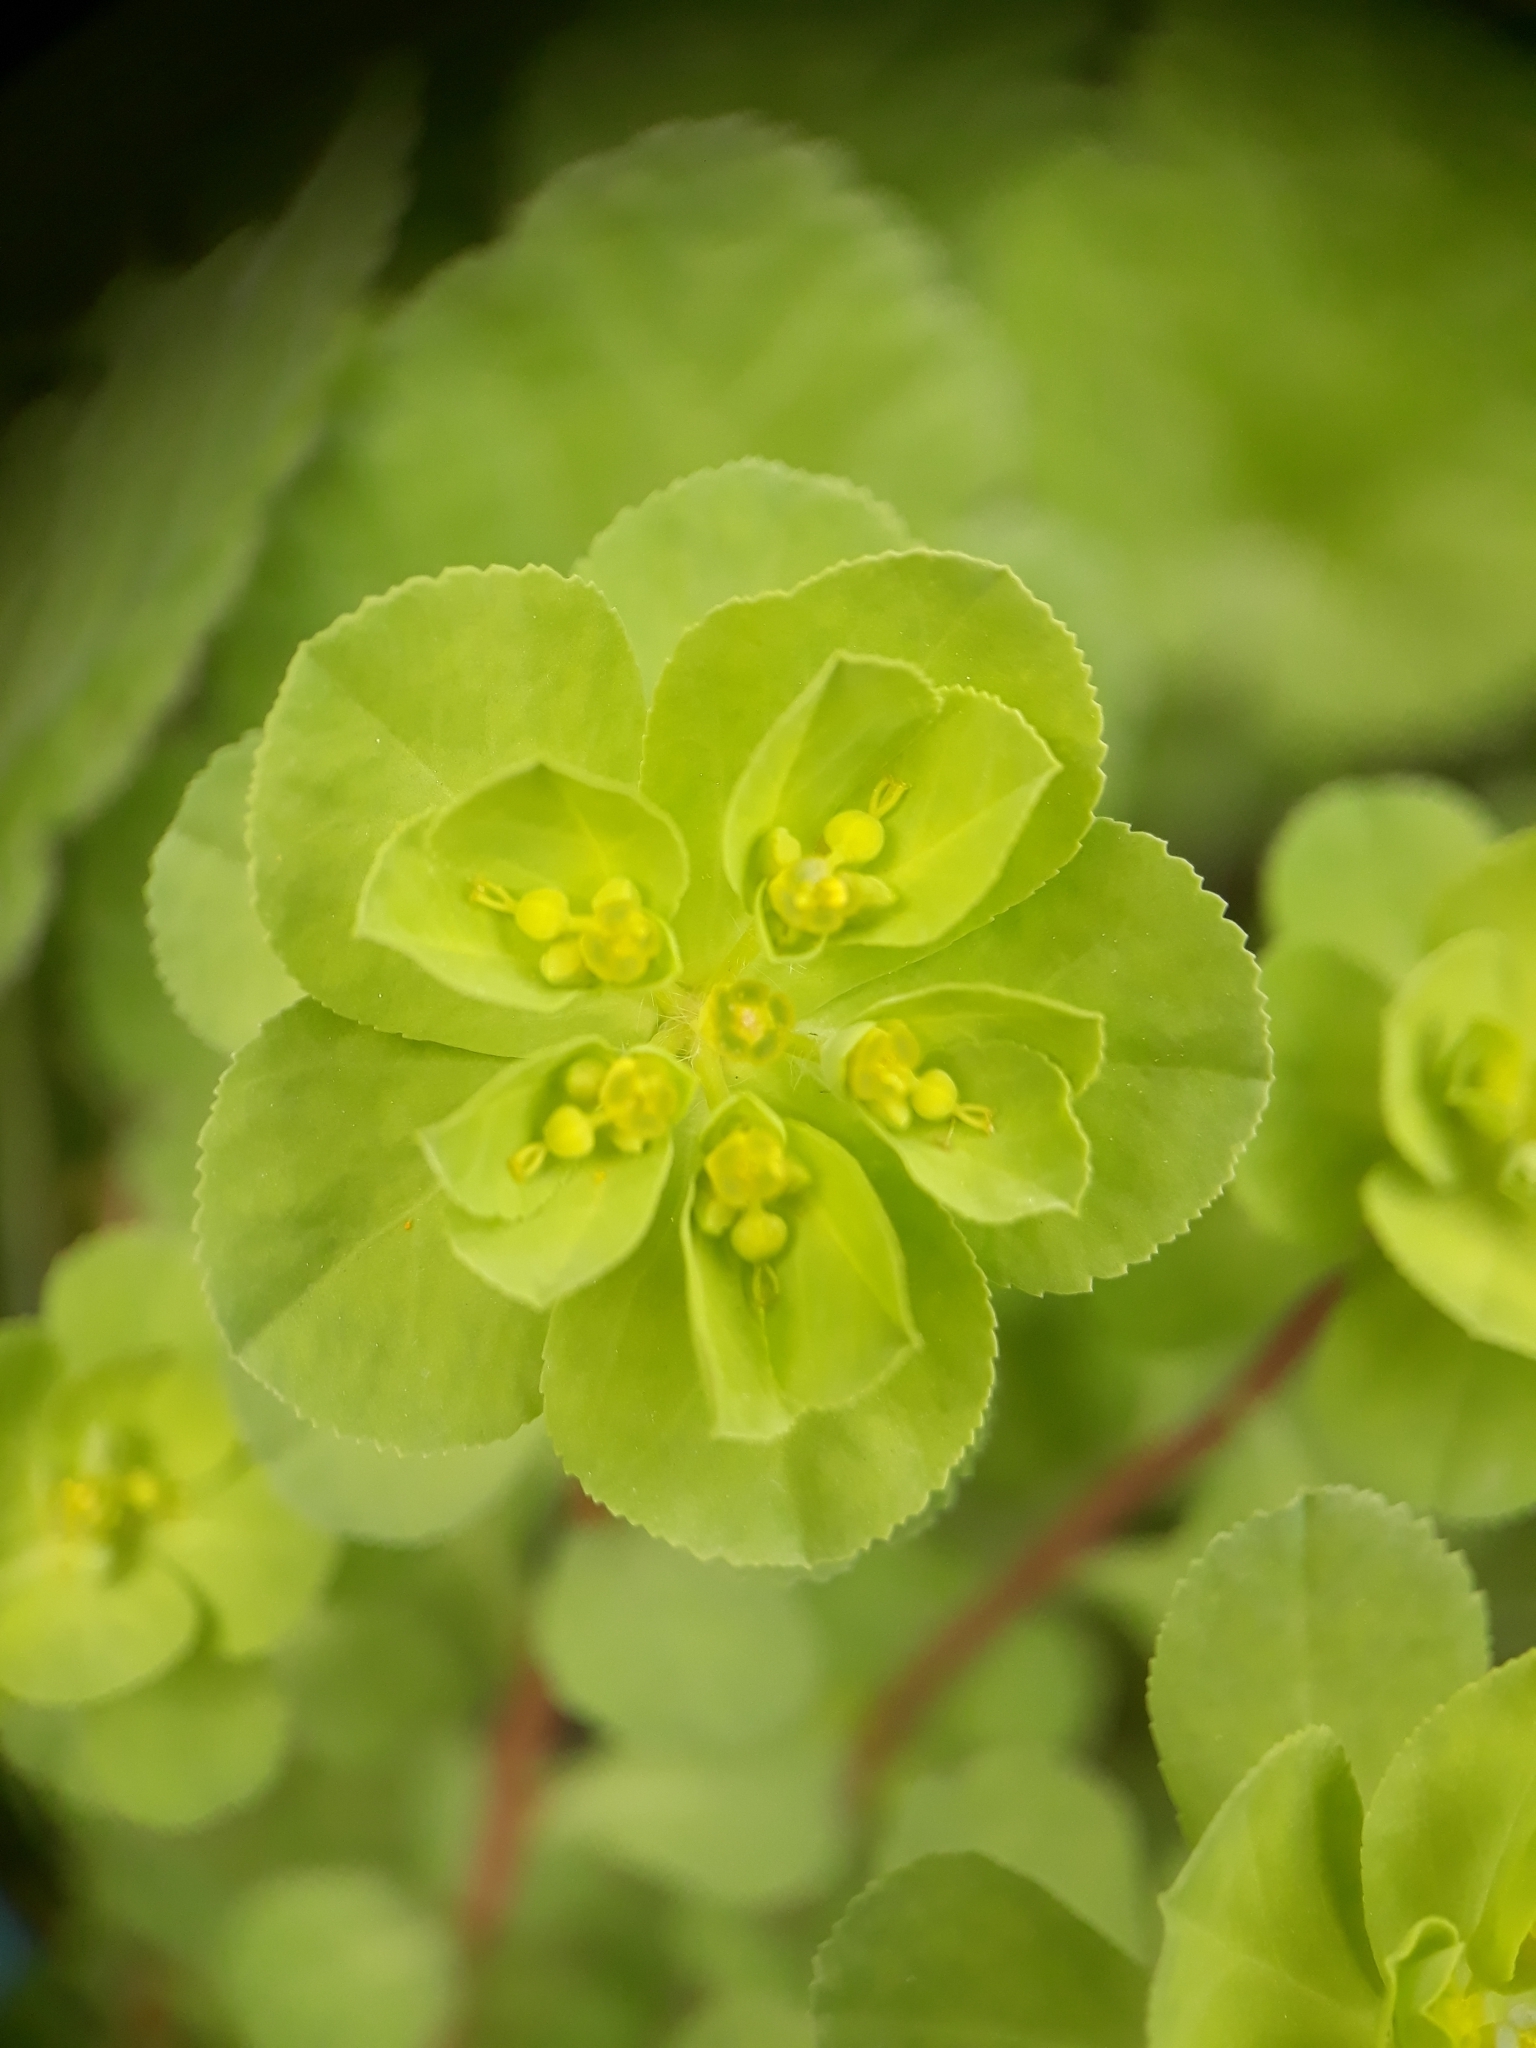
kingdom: Plantae
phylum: Tracheophyta
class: Magnoliopsida
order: Malpighiales
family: Euphorbiaceae
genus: Euphorbia
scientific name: Euphorbia helioscopia
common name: Sun spurge
